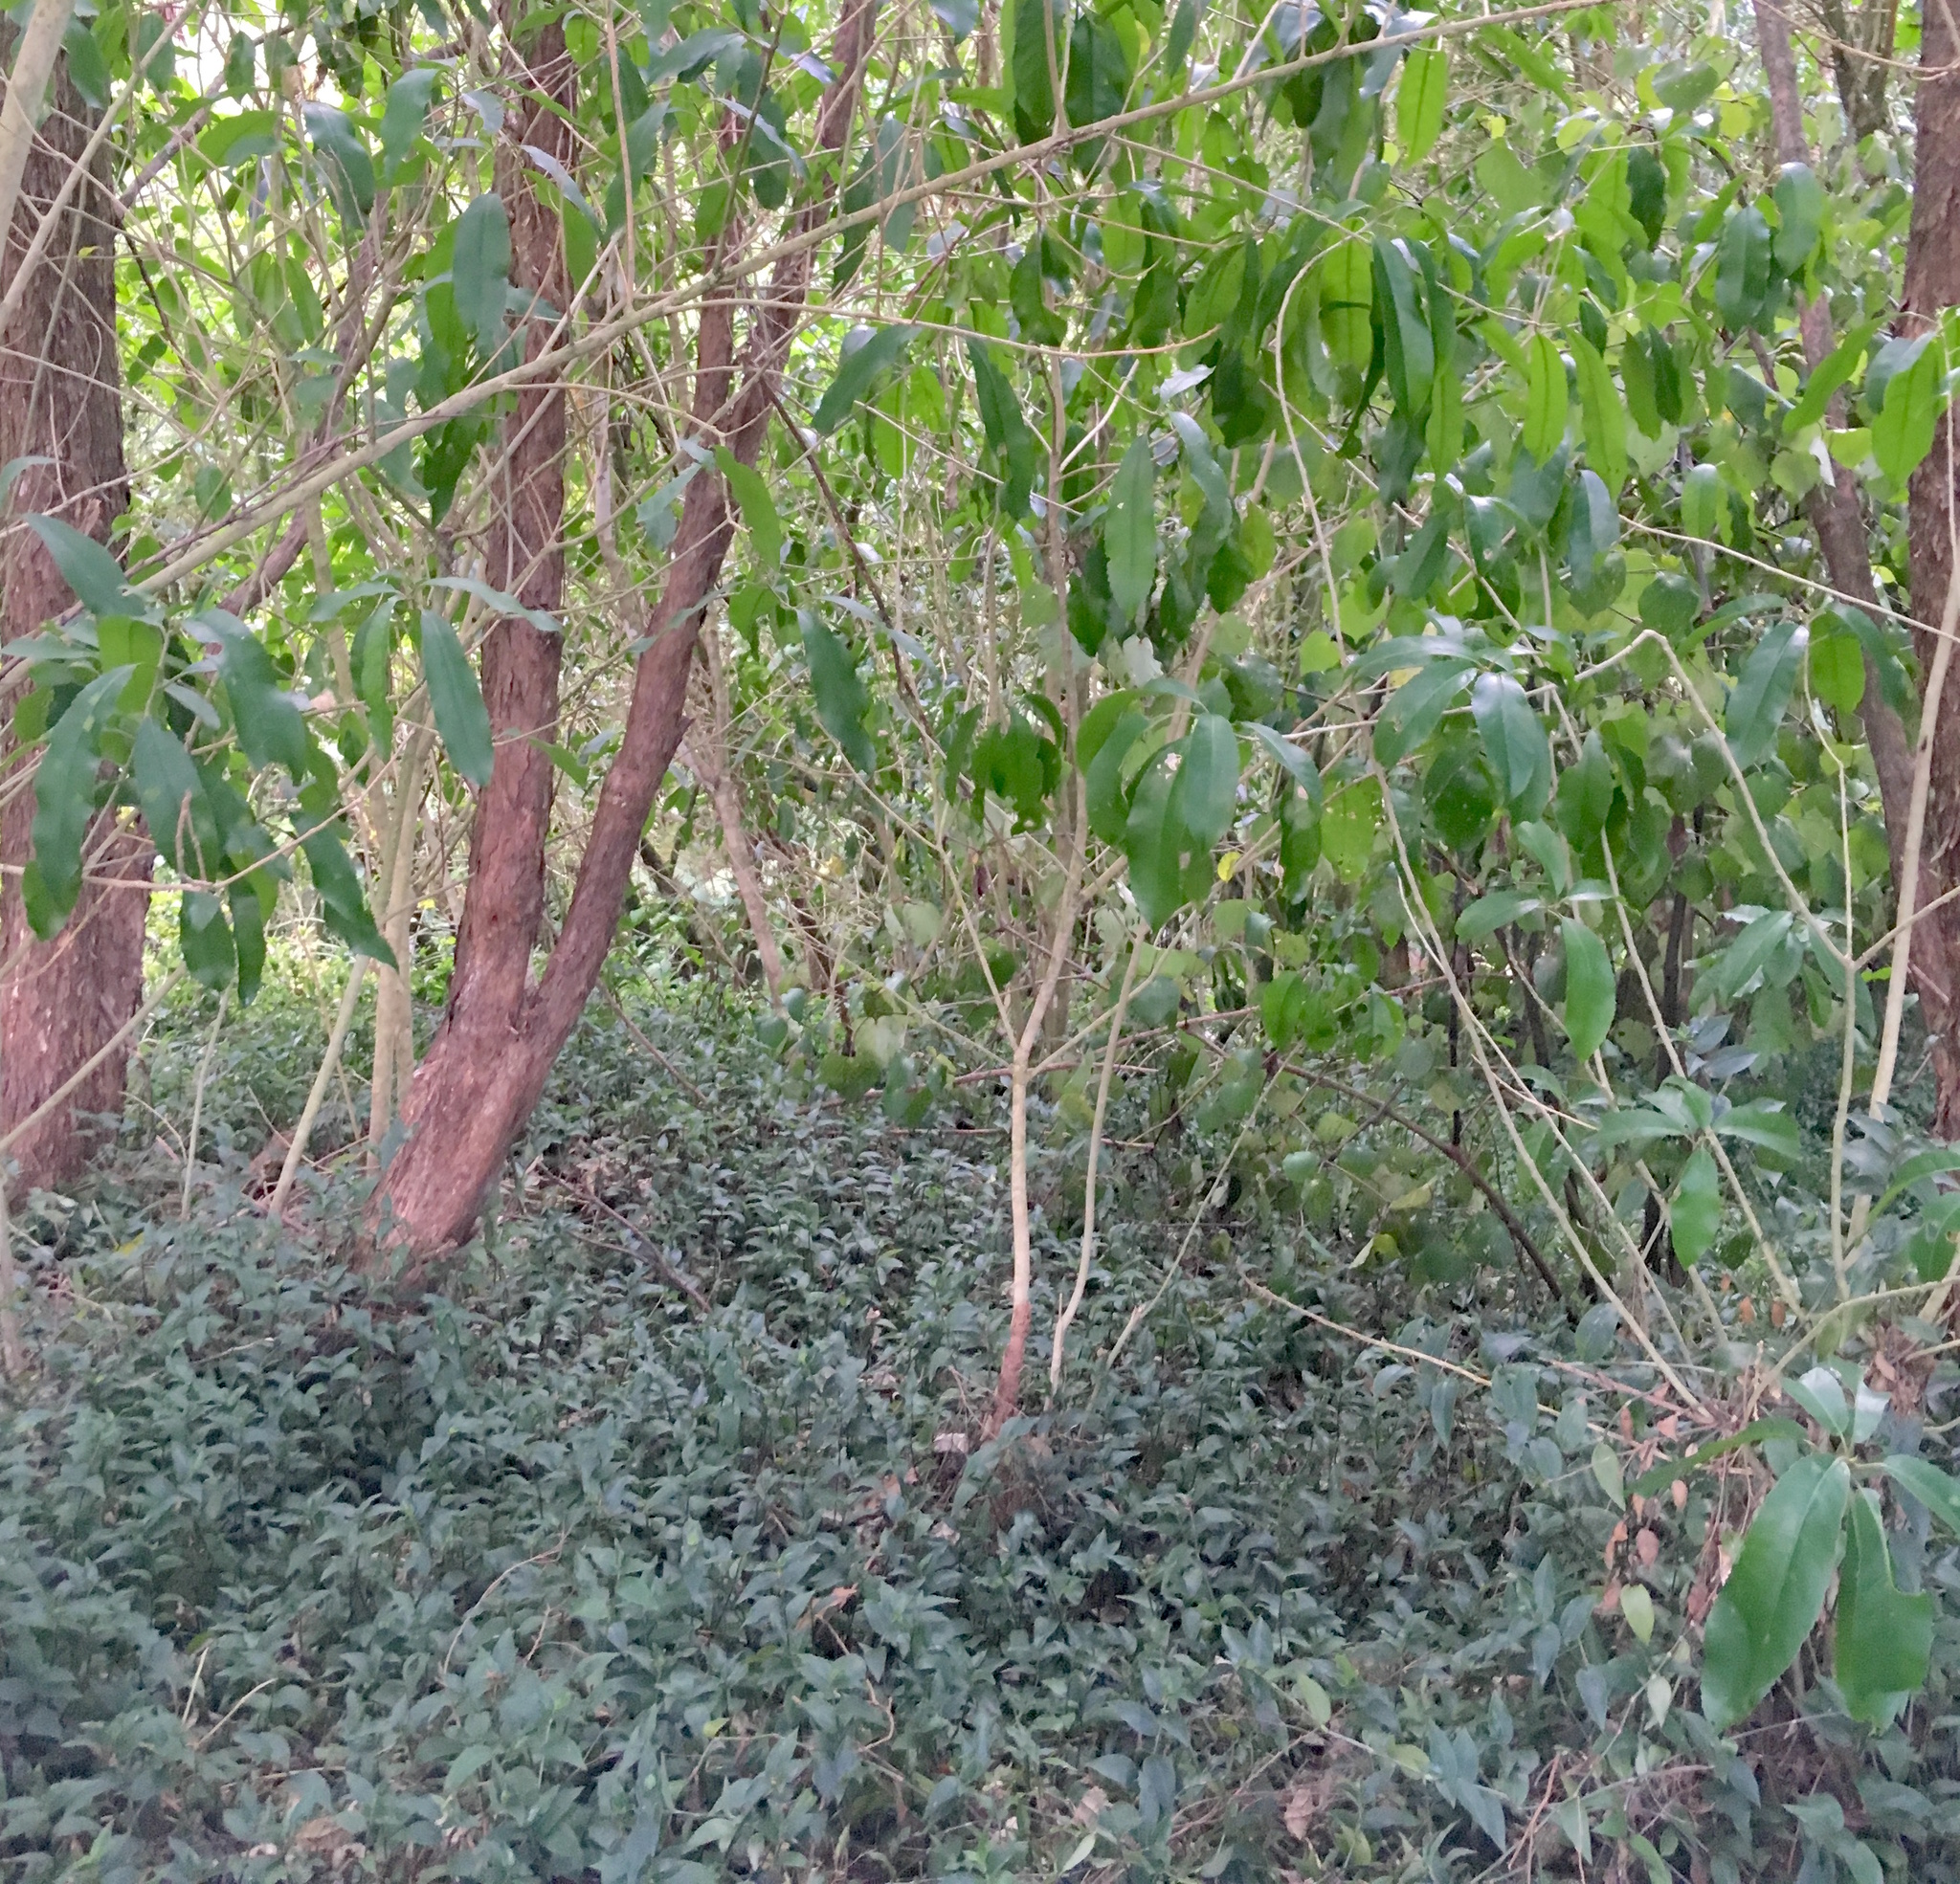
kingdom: Plantae
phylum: Tracheophyta
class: Liliopsida
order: Commelinales
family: Commelinaceae
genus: Tradescantia
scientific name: Tradescantia fluminensis
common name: Wandering-jew
